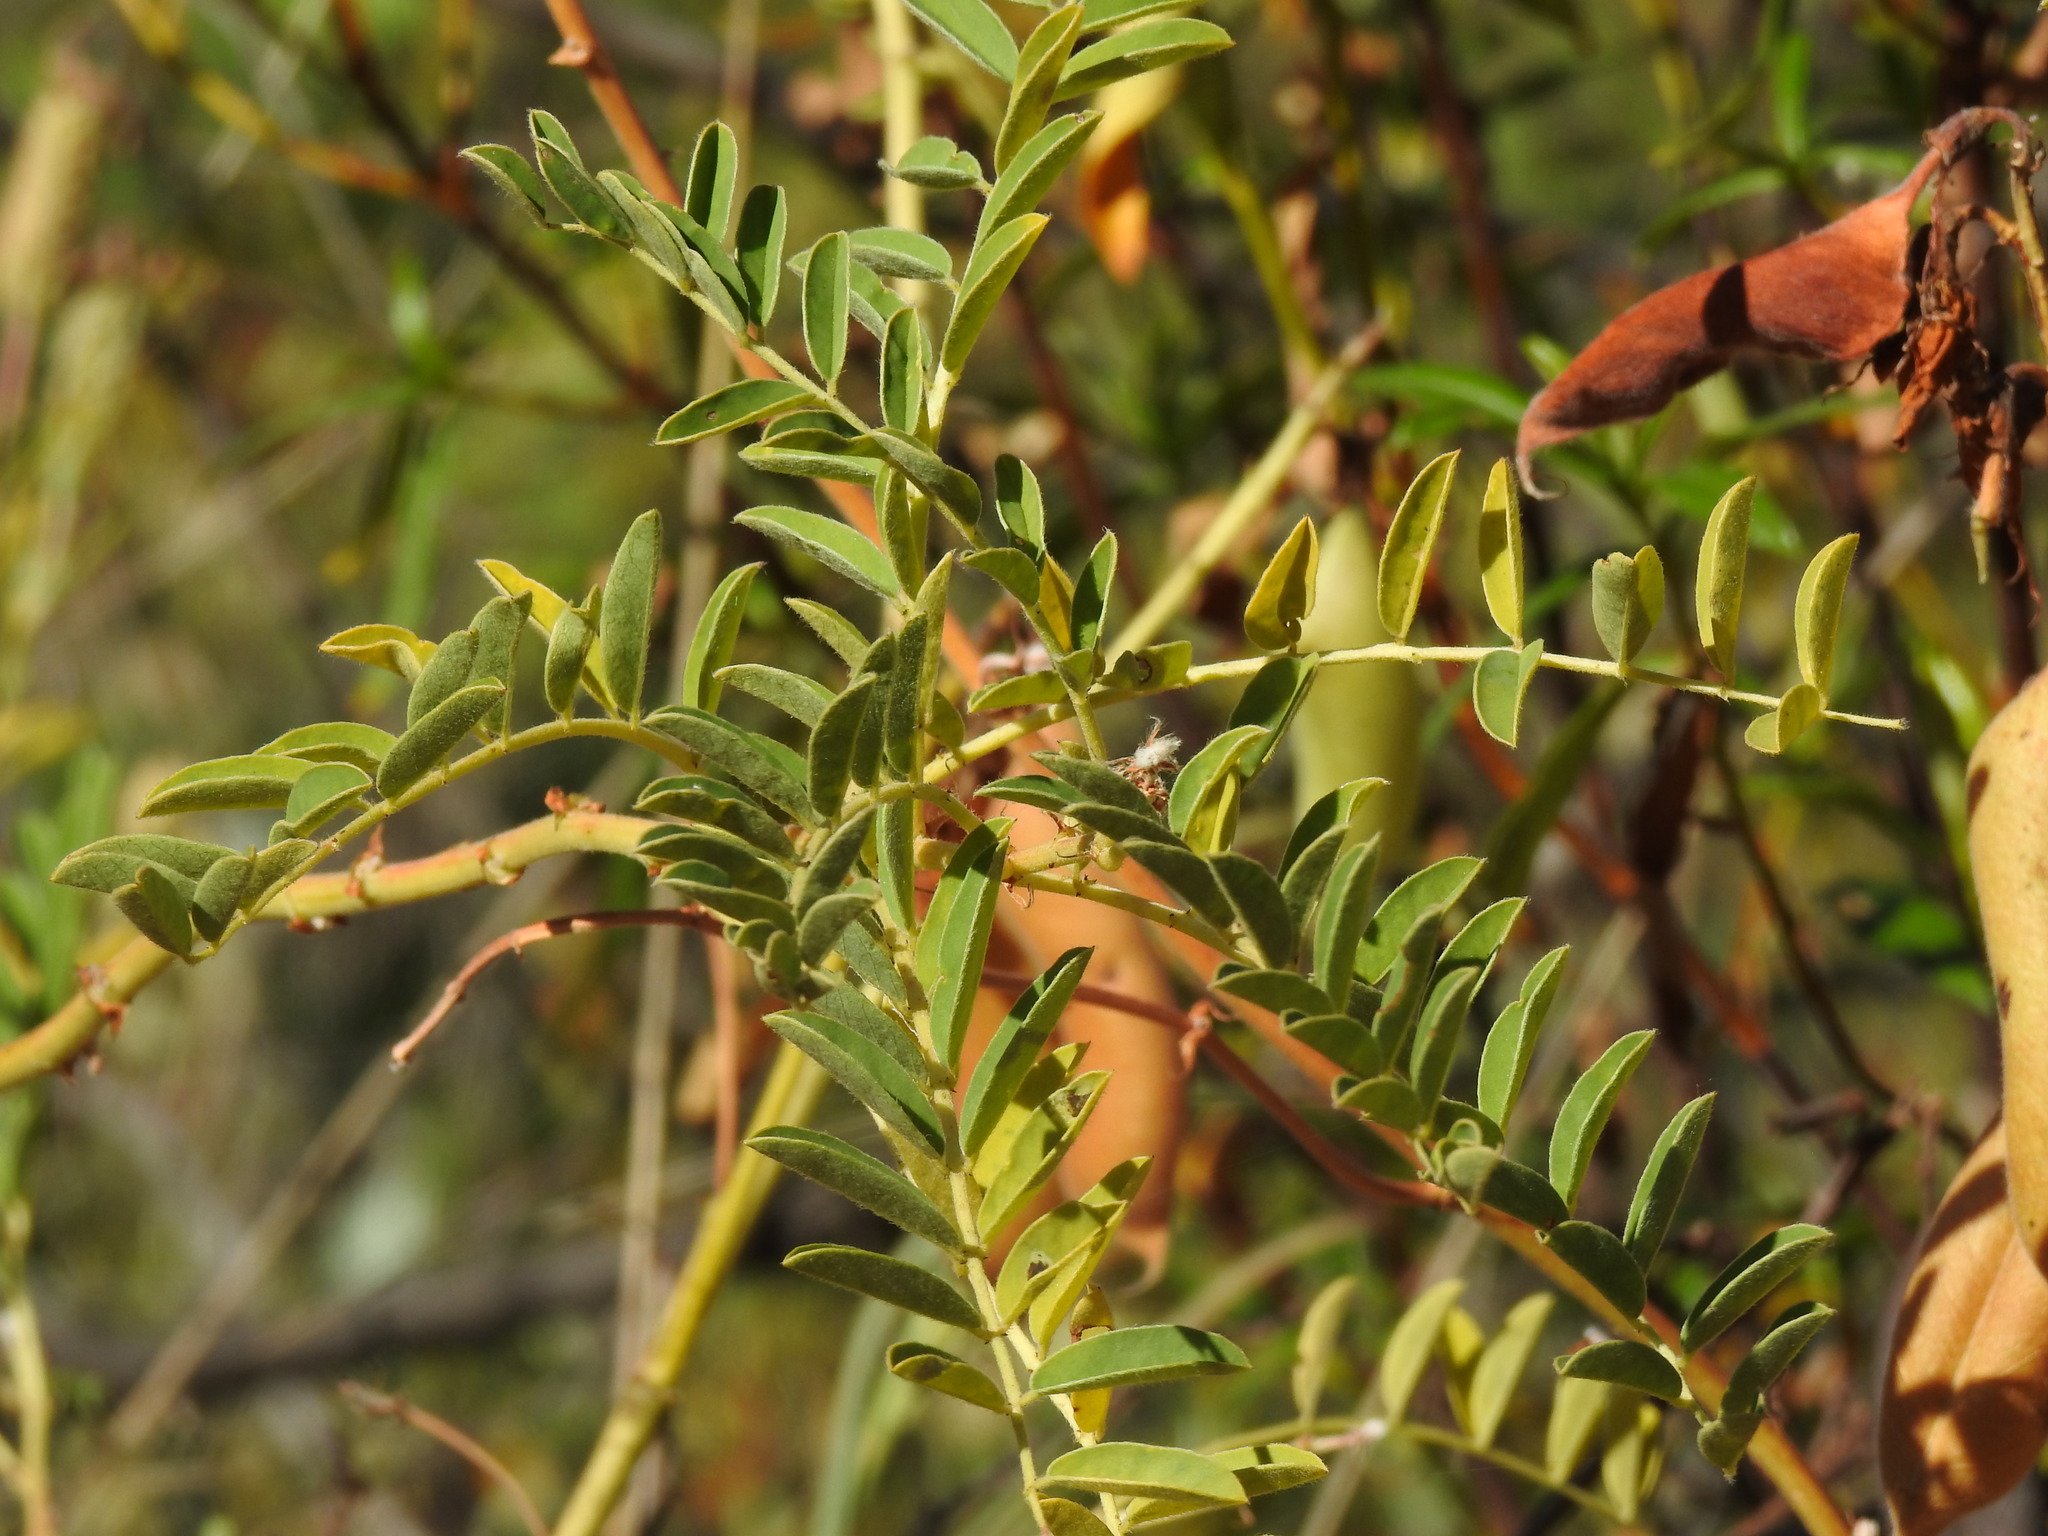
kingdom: Plantae
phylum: Tracheophyta
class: Magnoliopsida
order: Fabales
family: Fabaceae
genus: Erophaca
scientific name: Erophaca baetica
